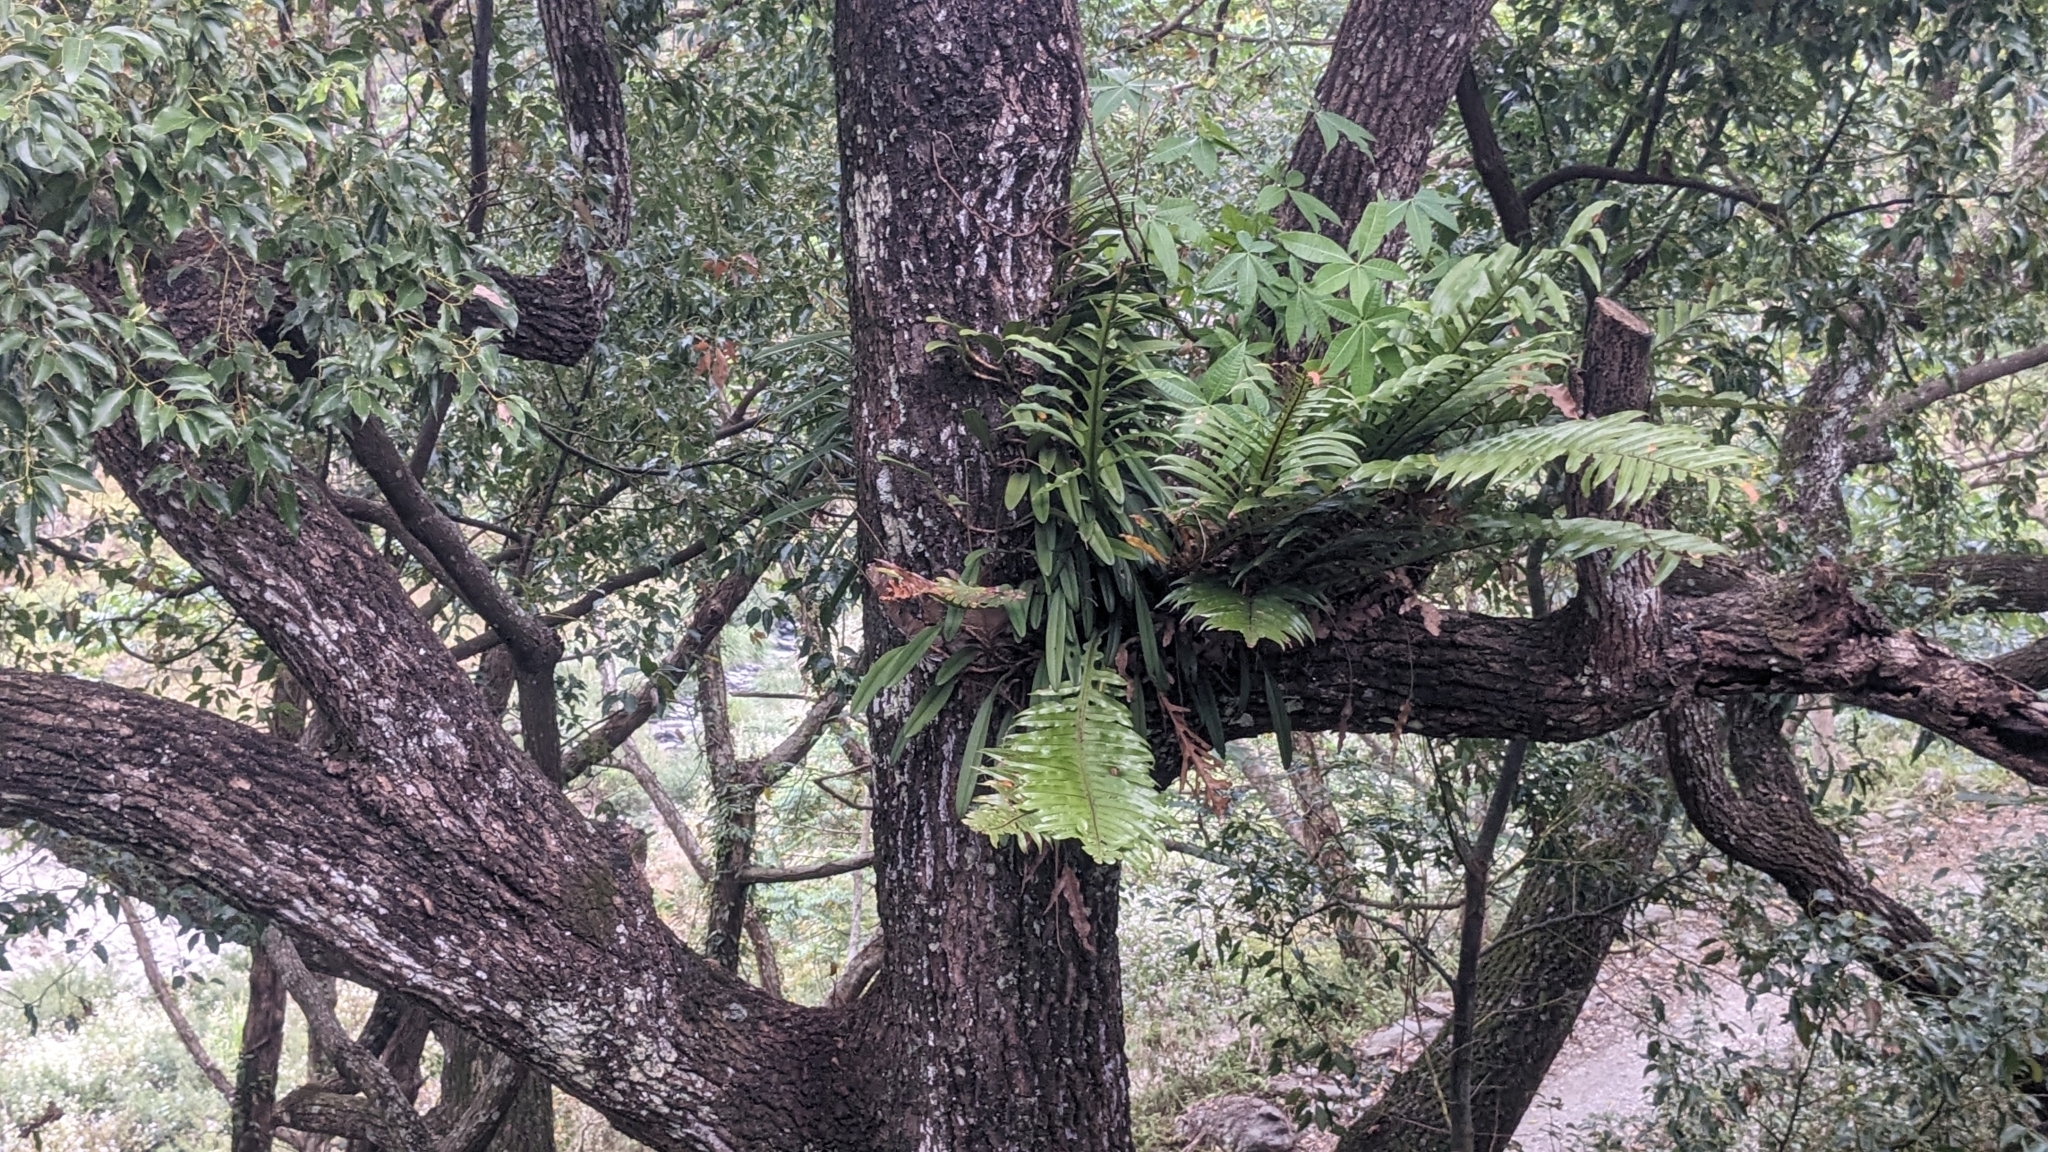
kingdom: Plantae
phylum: Tracheophyta
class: Liliopsida
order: Asparagales
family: Orchidaceae
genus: Bulbophyllum
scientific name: Bulbophyllum affine
